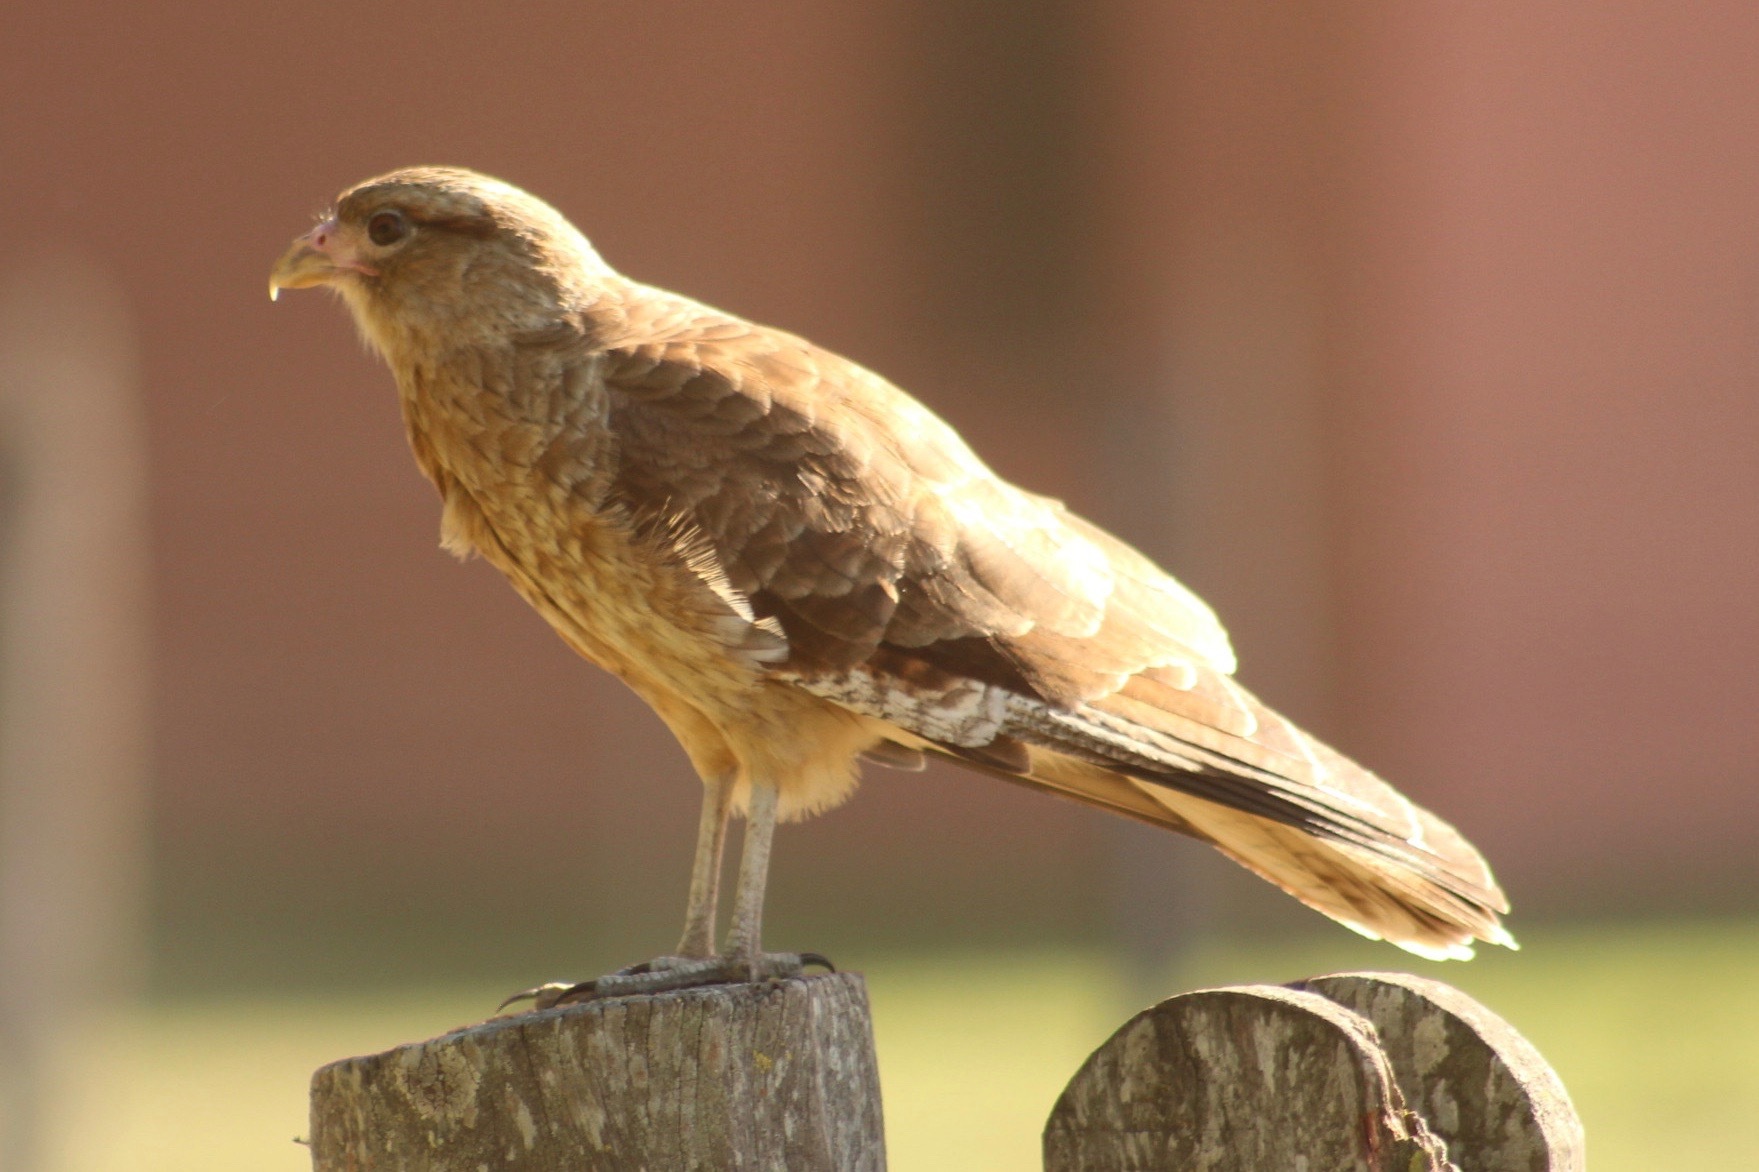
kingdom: Animalia
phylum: Chordata
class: Aves
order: Falconiformes
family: Falconidae
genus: Daptrius
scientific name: Daptrius
